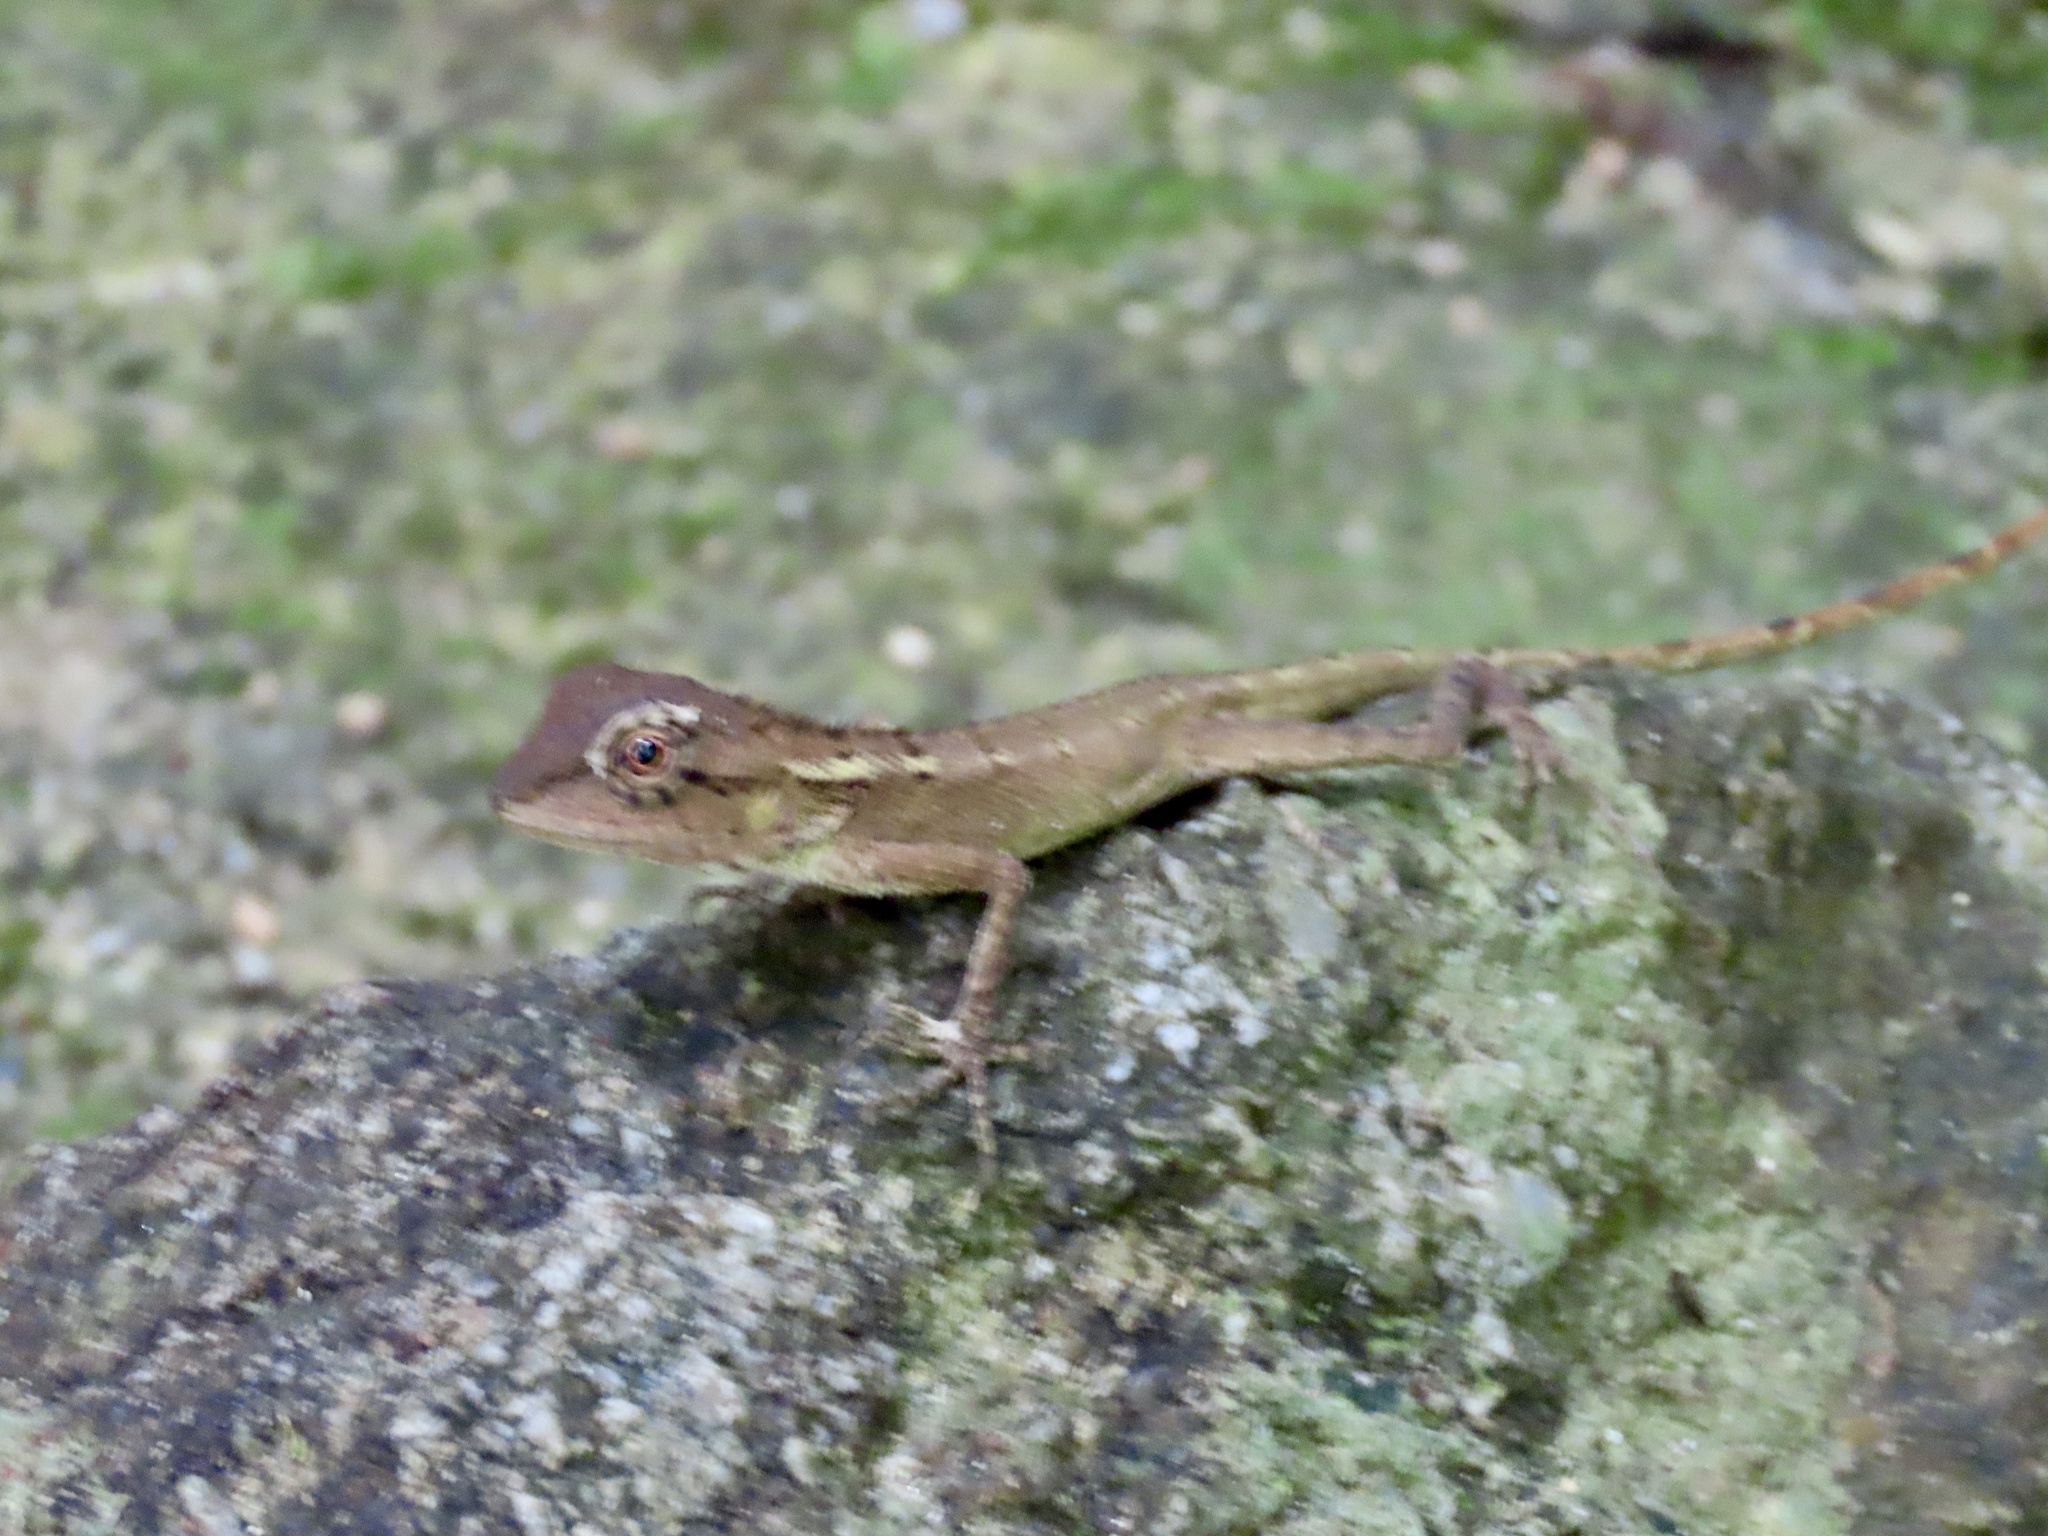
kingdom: Animalia
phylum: Chordata
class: Squamata
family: Agamidae
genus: Calotes
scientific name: Calotes emma
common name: Thailand bloodsucker
